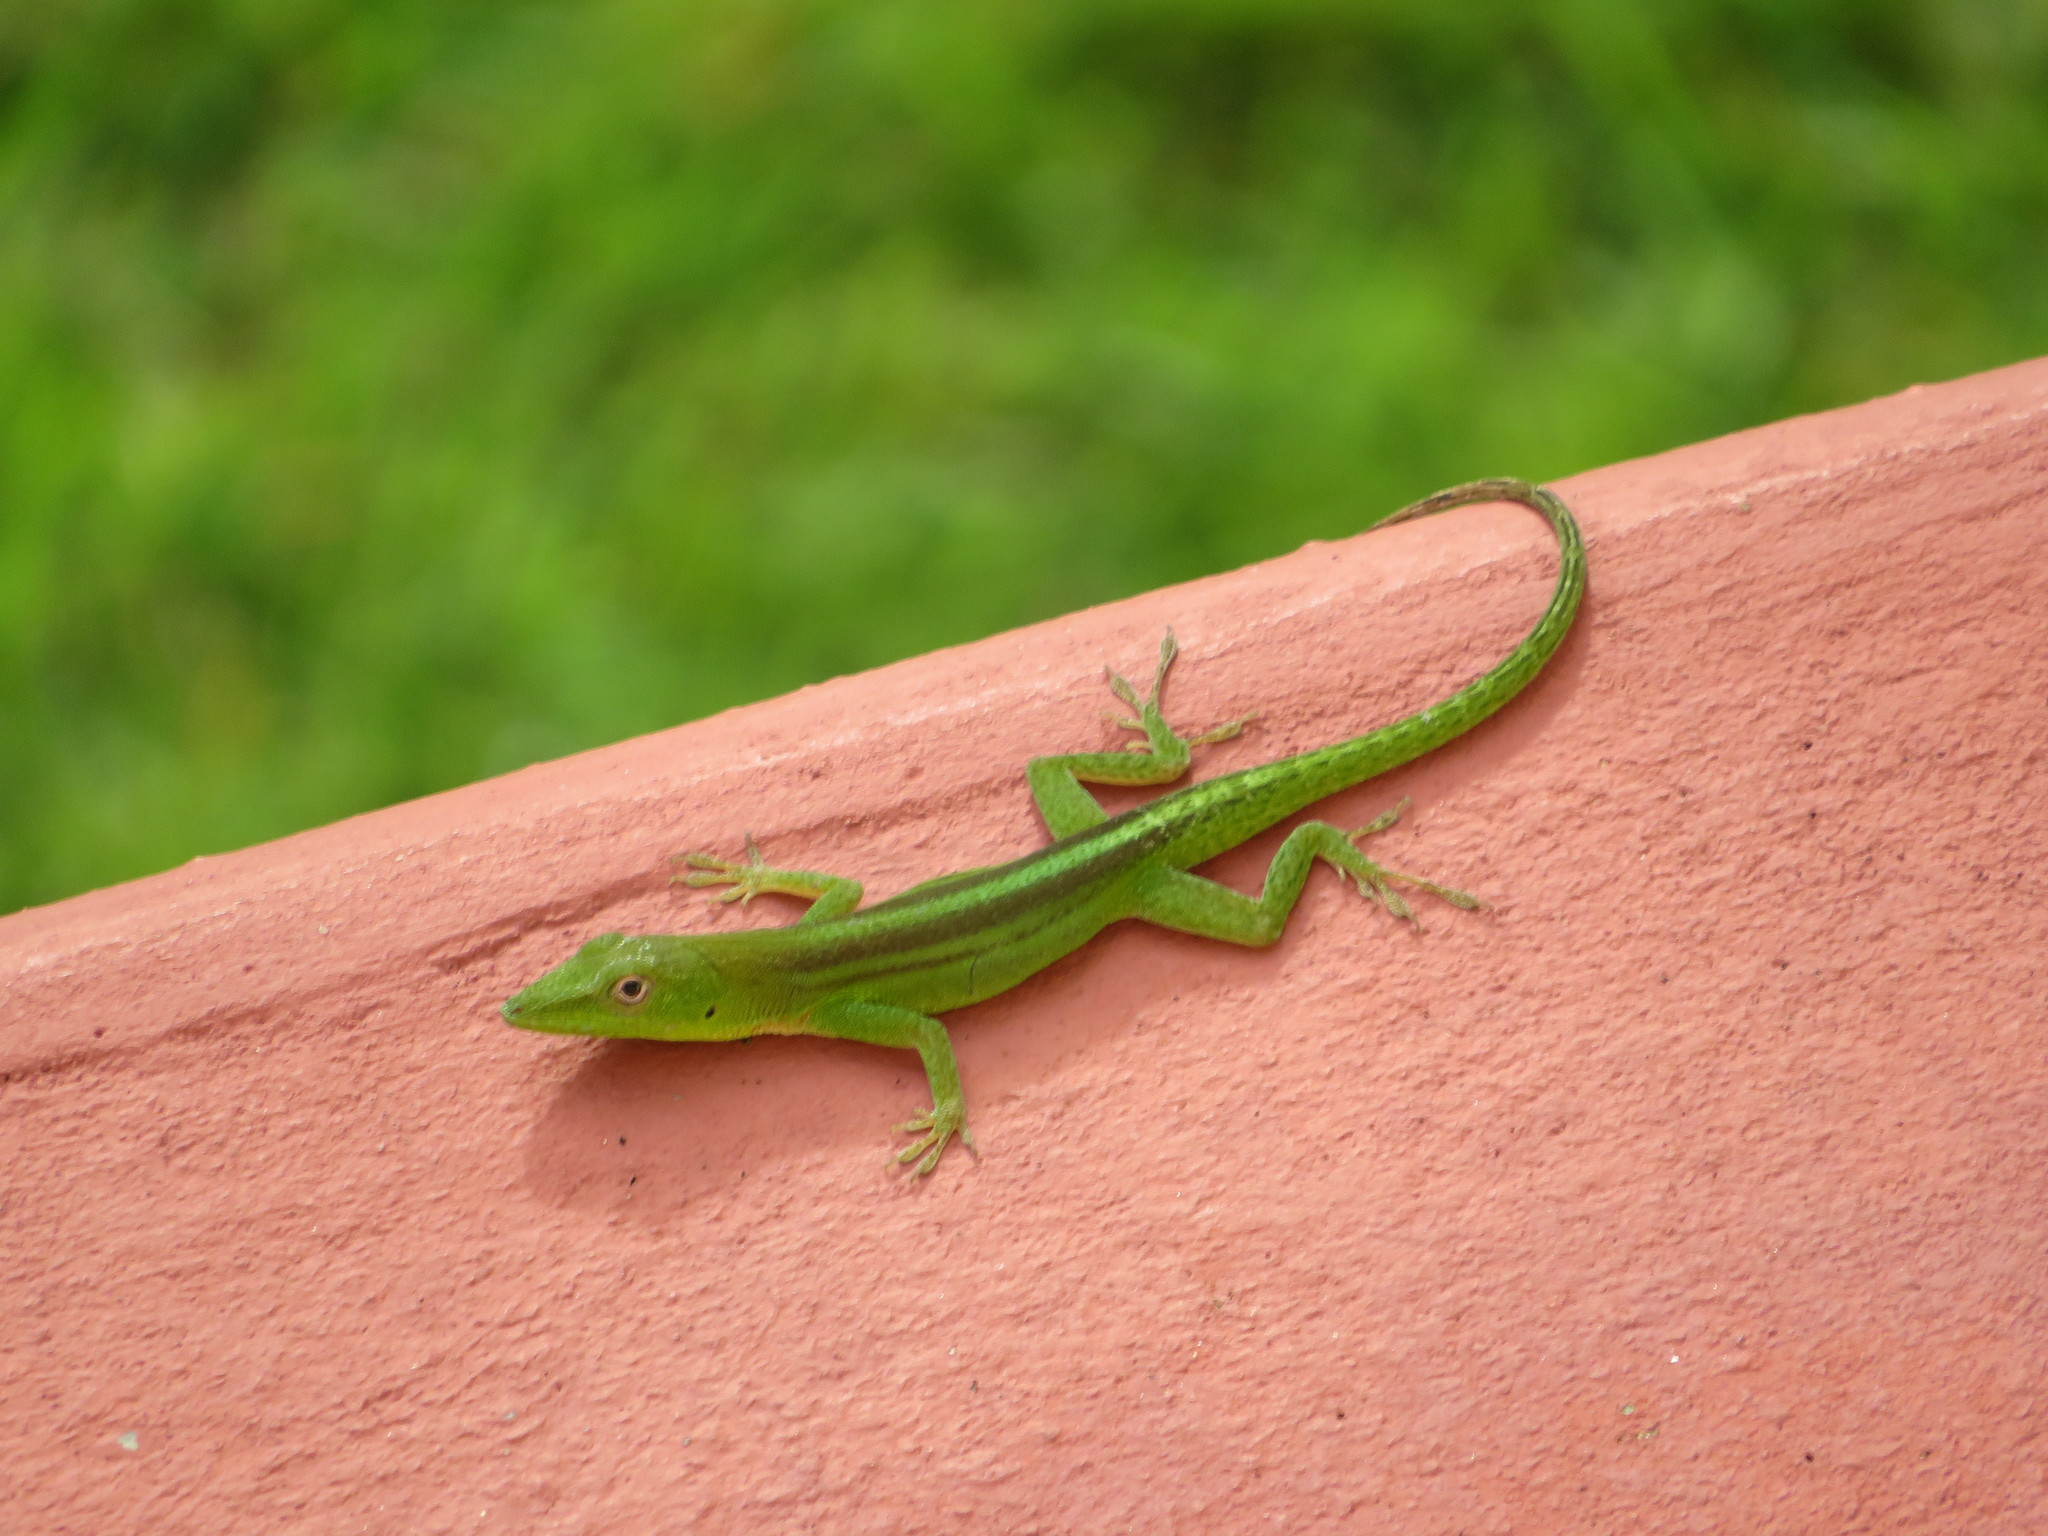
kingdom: Animalia
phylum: Chordata
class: Squamata
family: Dactyloidae
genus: Anolis
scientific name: Anolis callainus
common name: Dominican green anole
